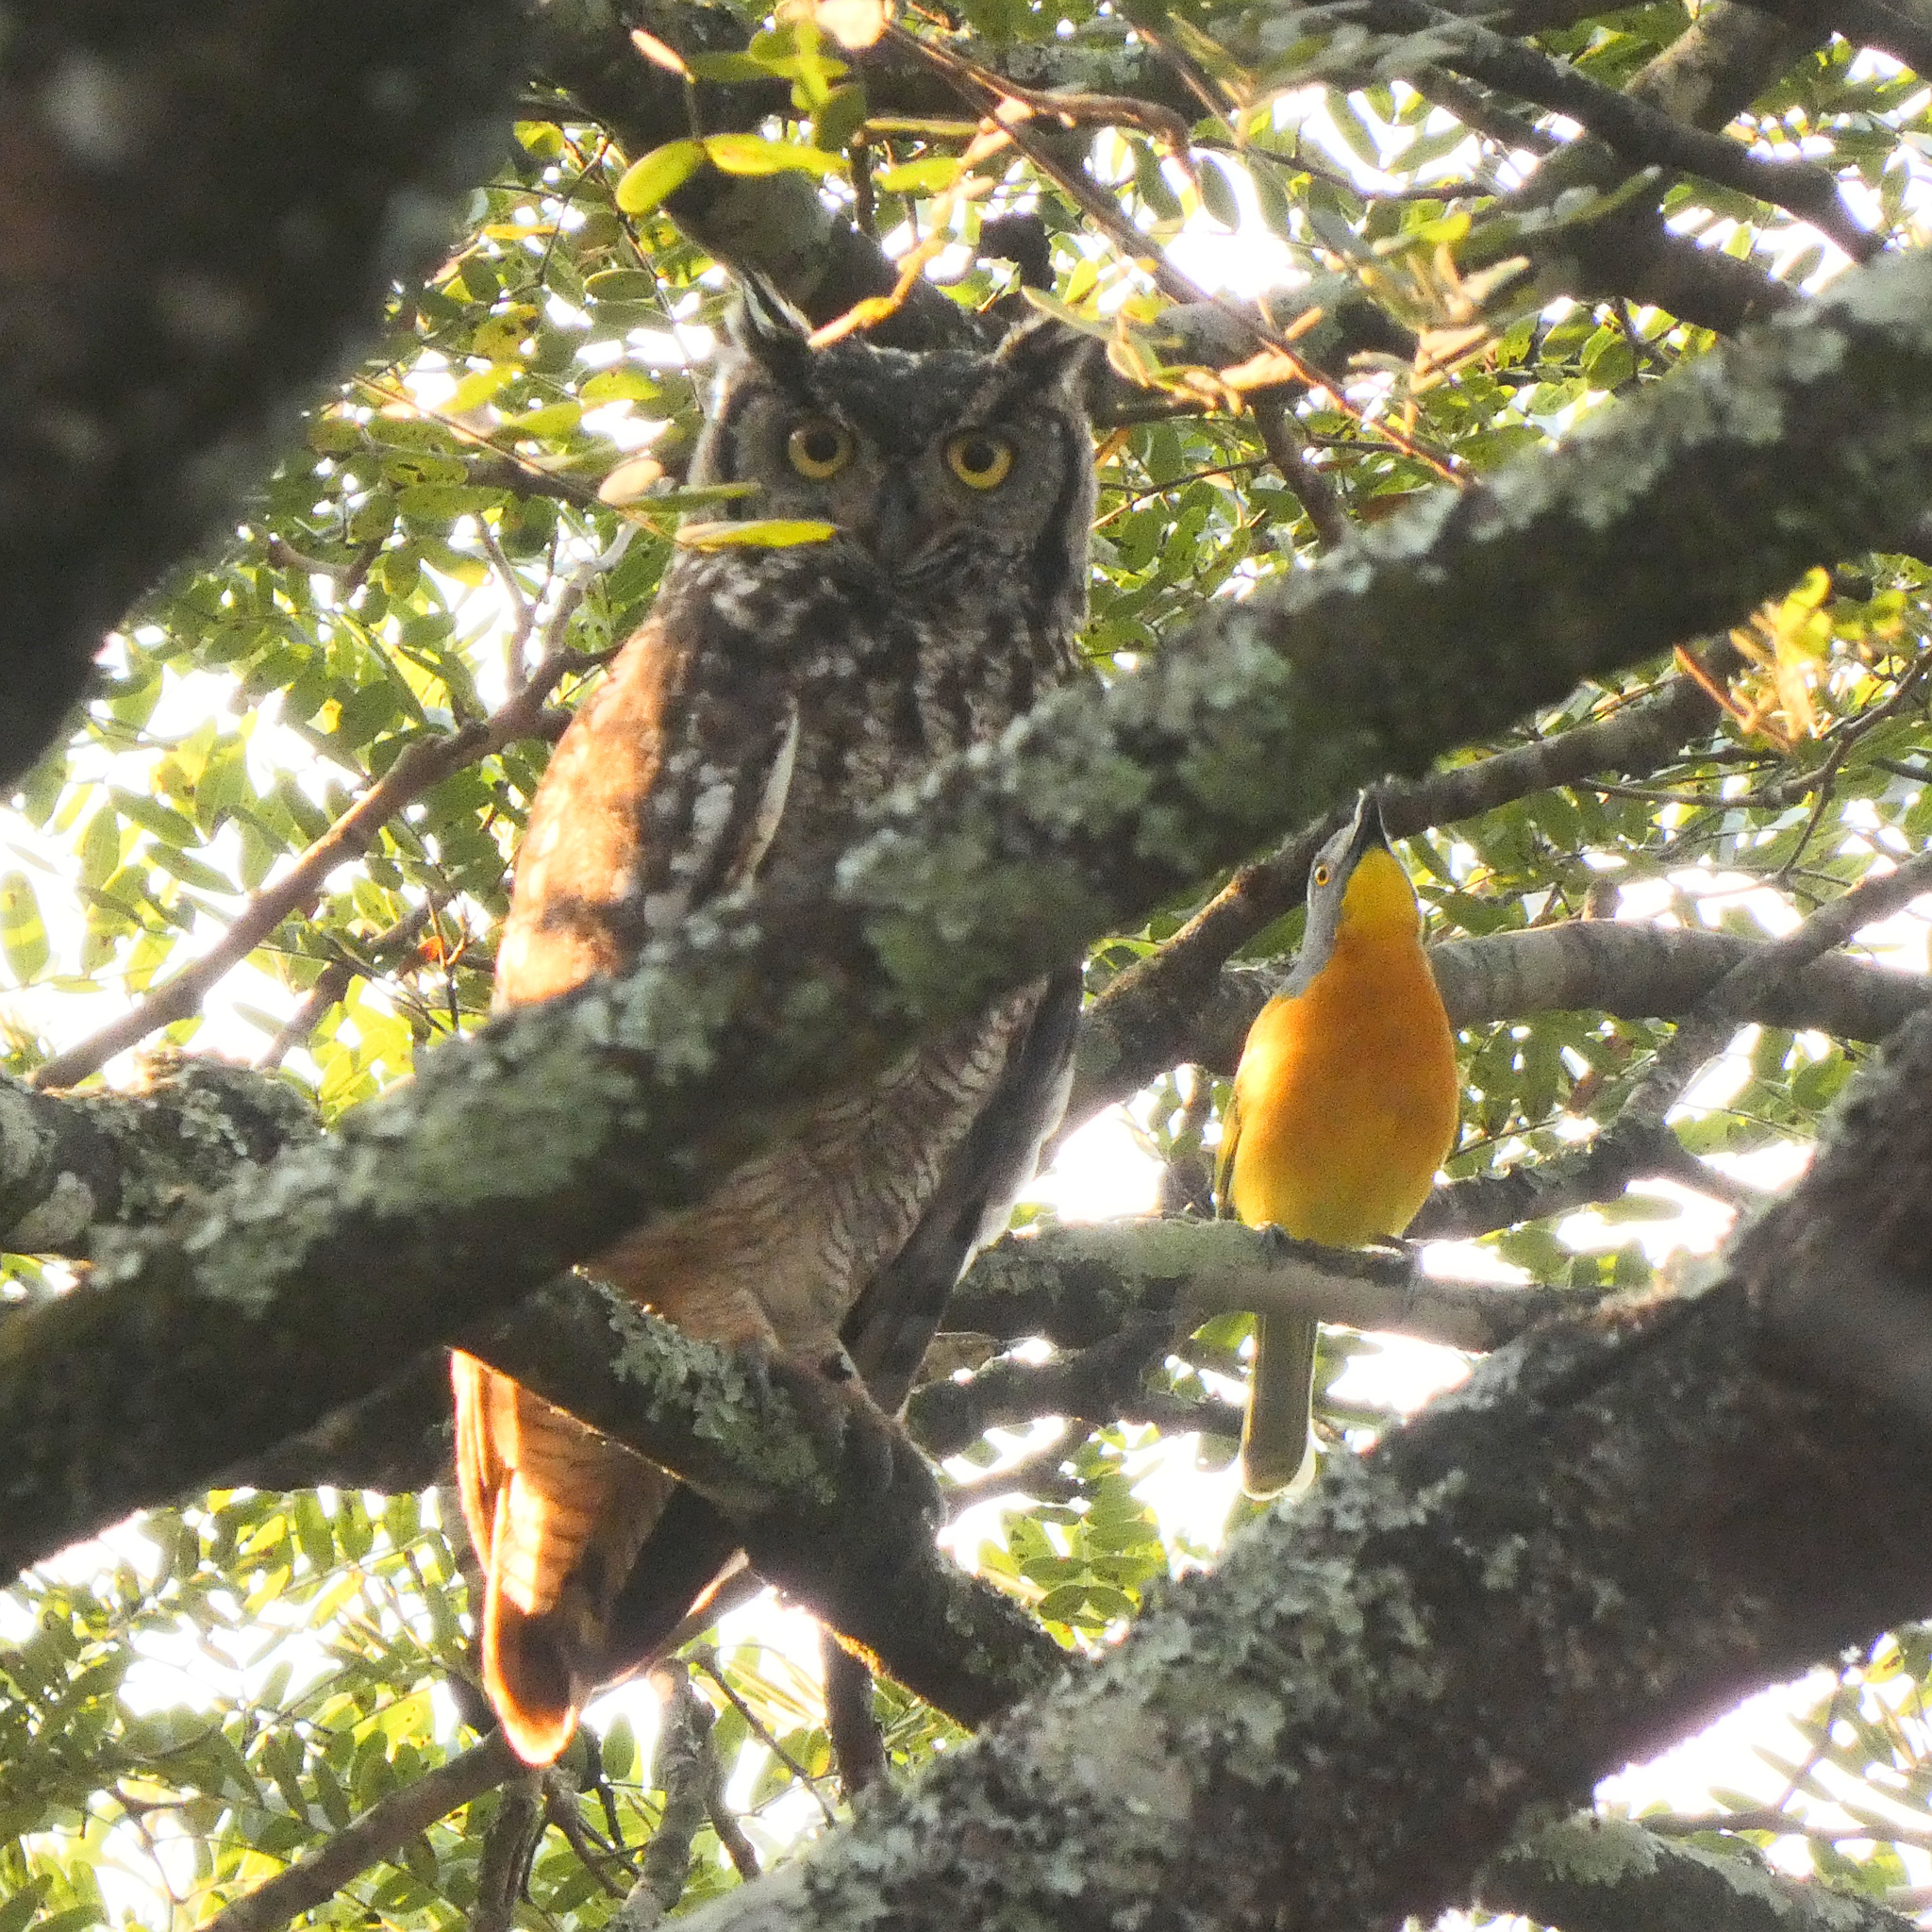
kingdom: Animalia
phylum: Chordata
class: Aves
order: Strigiformes
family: Strigidae
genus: Bubo
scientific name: Bubo africanus
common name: Spotted eagle-owl
